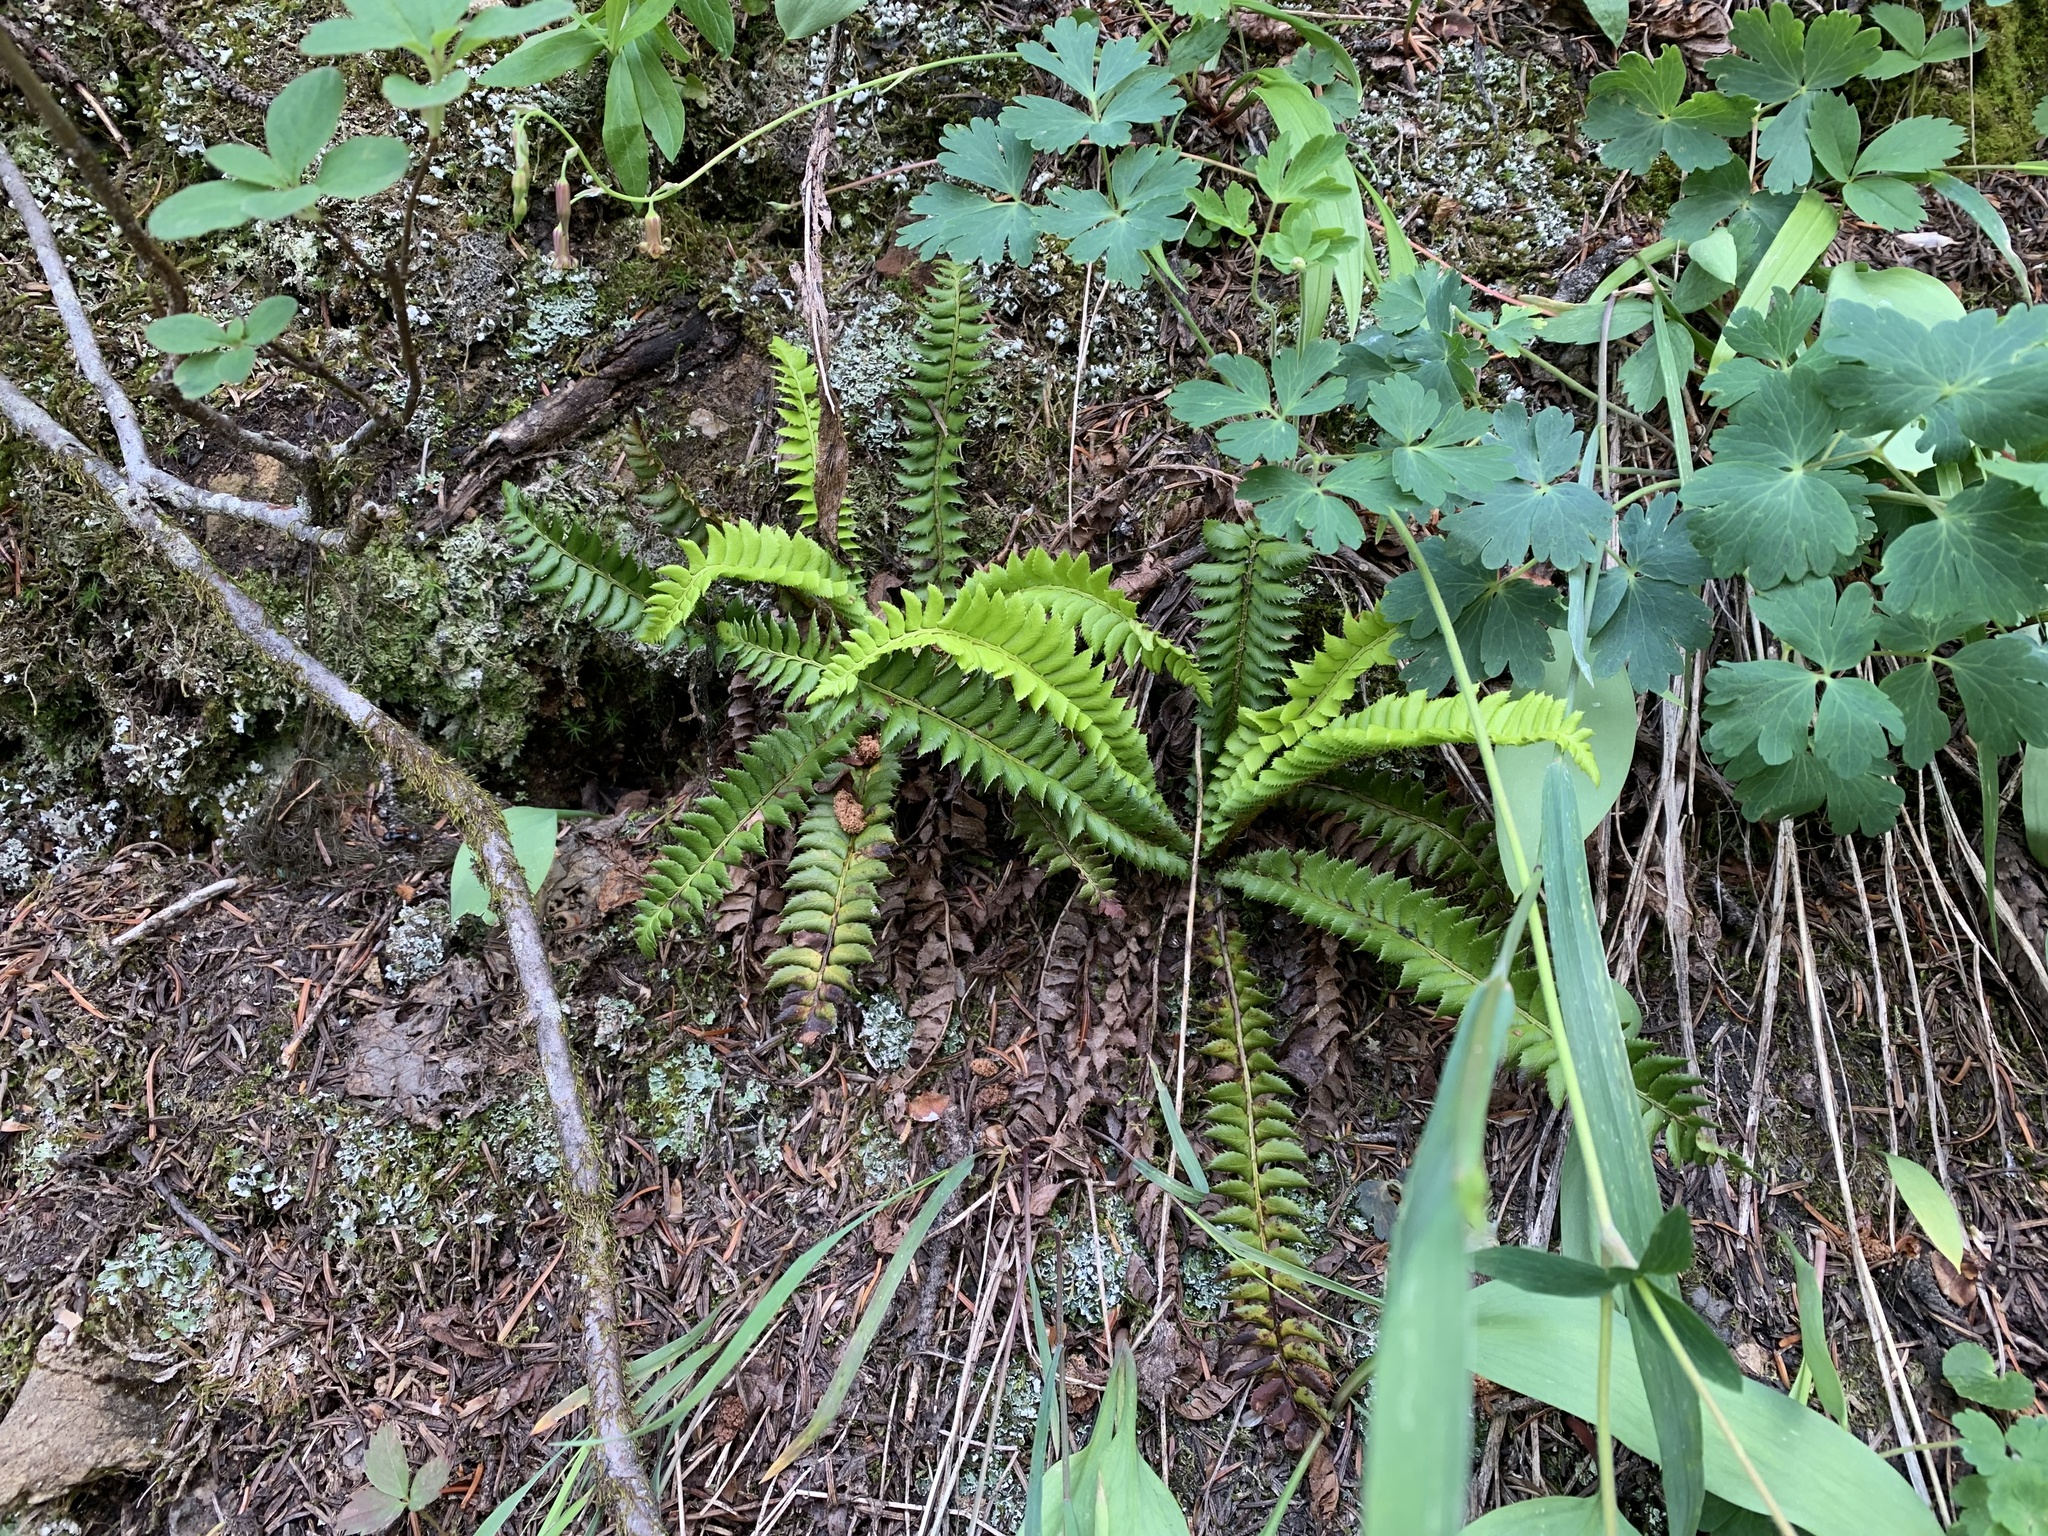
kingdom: Plantae
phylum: Tracheophyta
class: Polypodiopsida
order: Polypodiales
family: Dryopteridaceae
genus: Polystichum
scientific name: Polystichum lonchitis
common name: Holly fern
